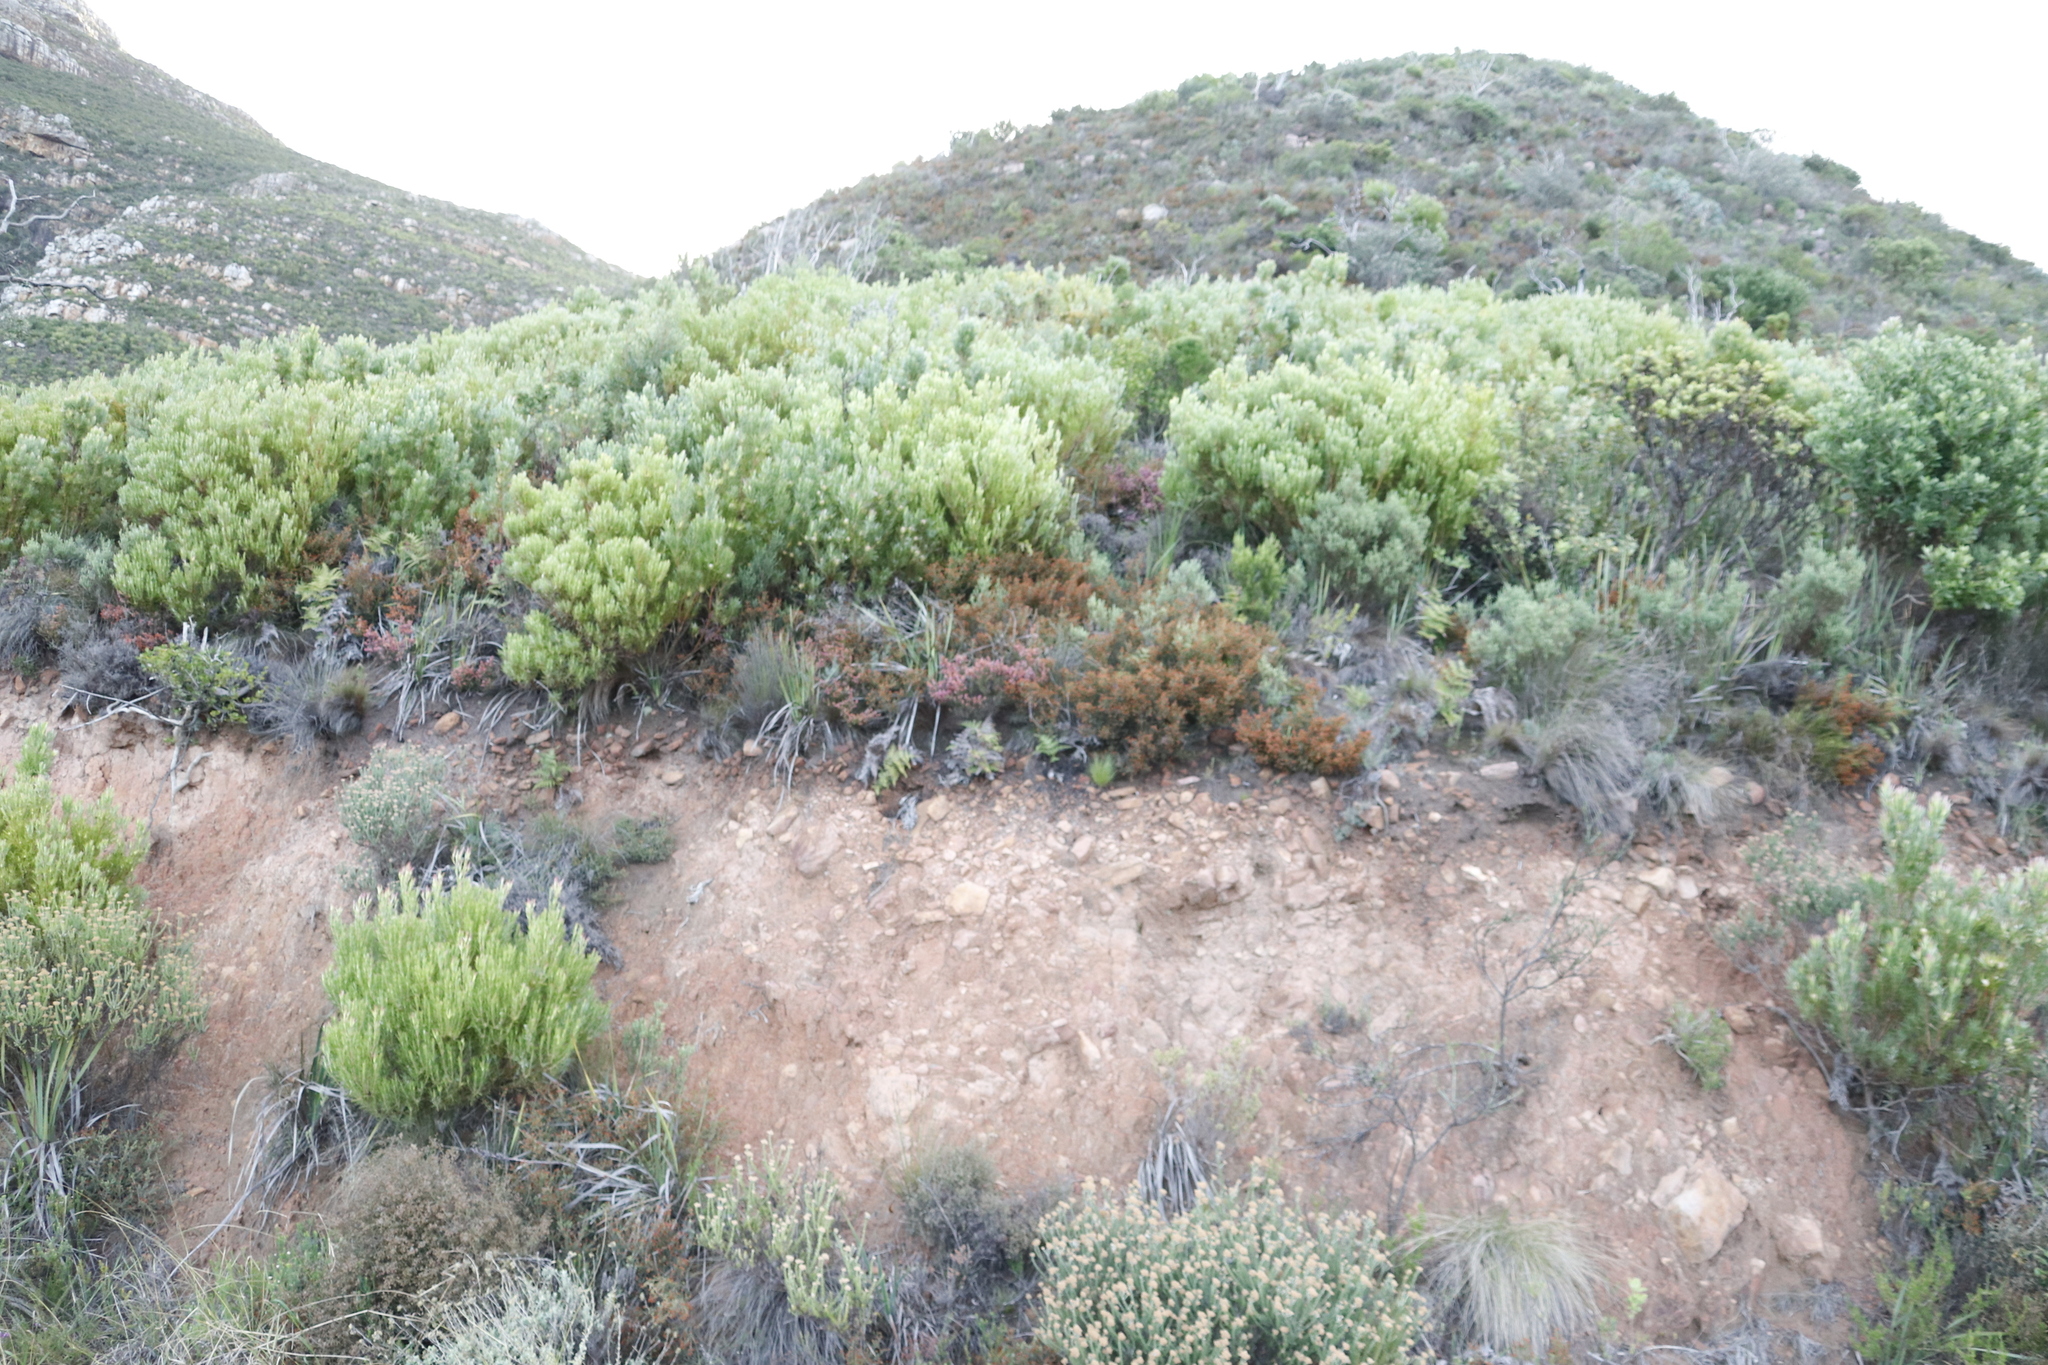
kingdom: Plantae
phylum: Tracheophyta
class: Magnoliopsida
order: Ericales
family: Ericaceae
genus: Erica
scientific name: Erica nudiflora
